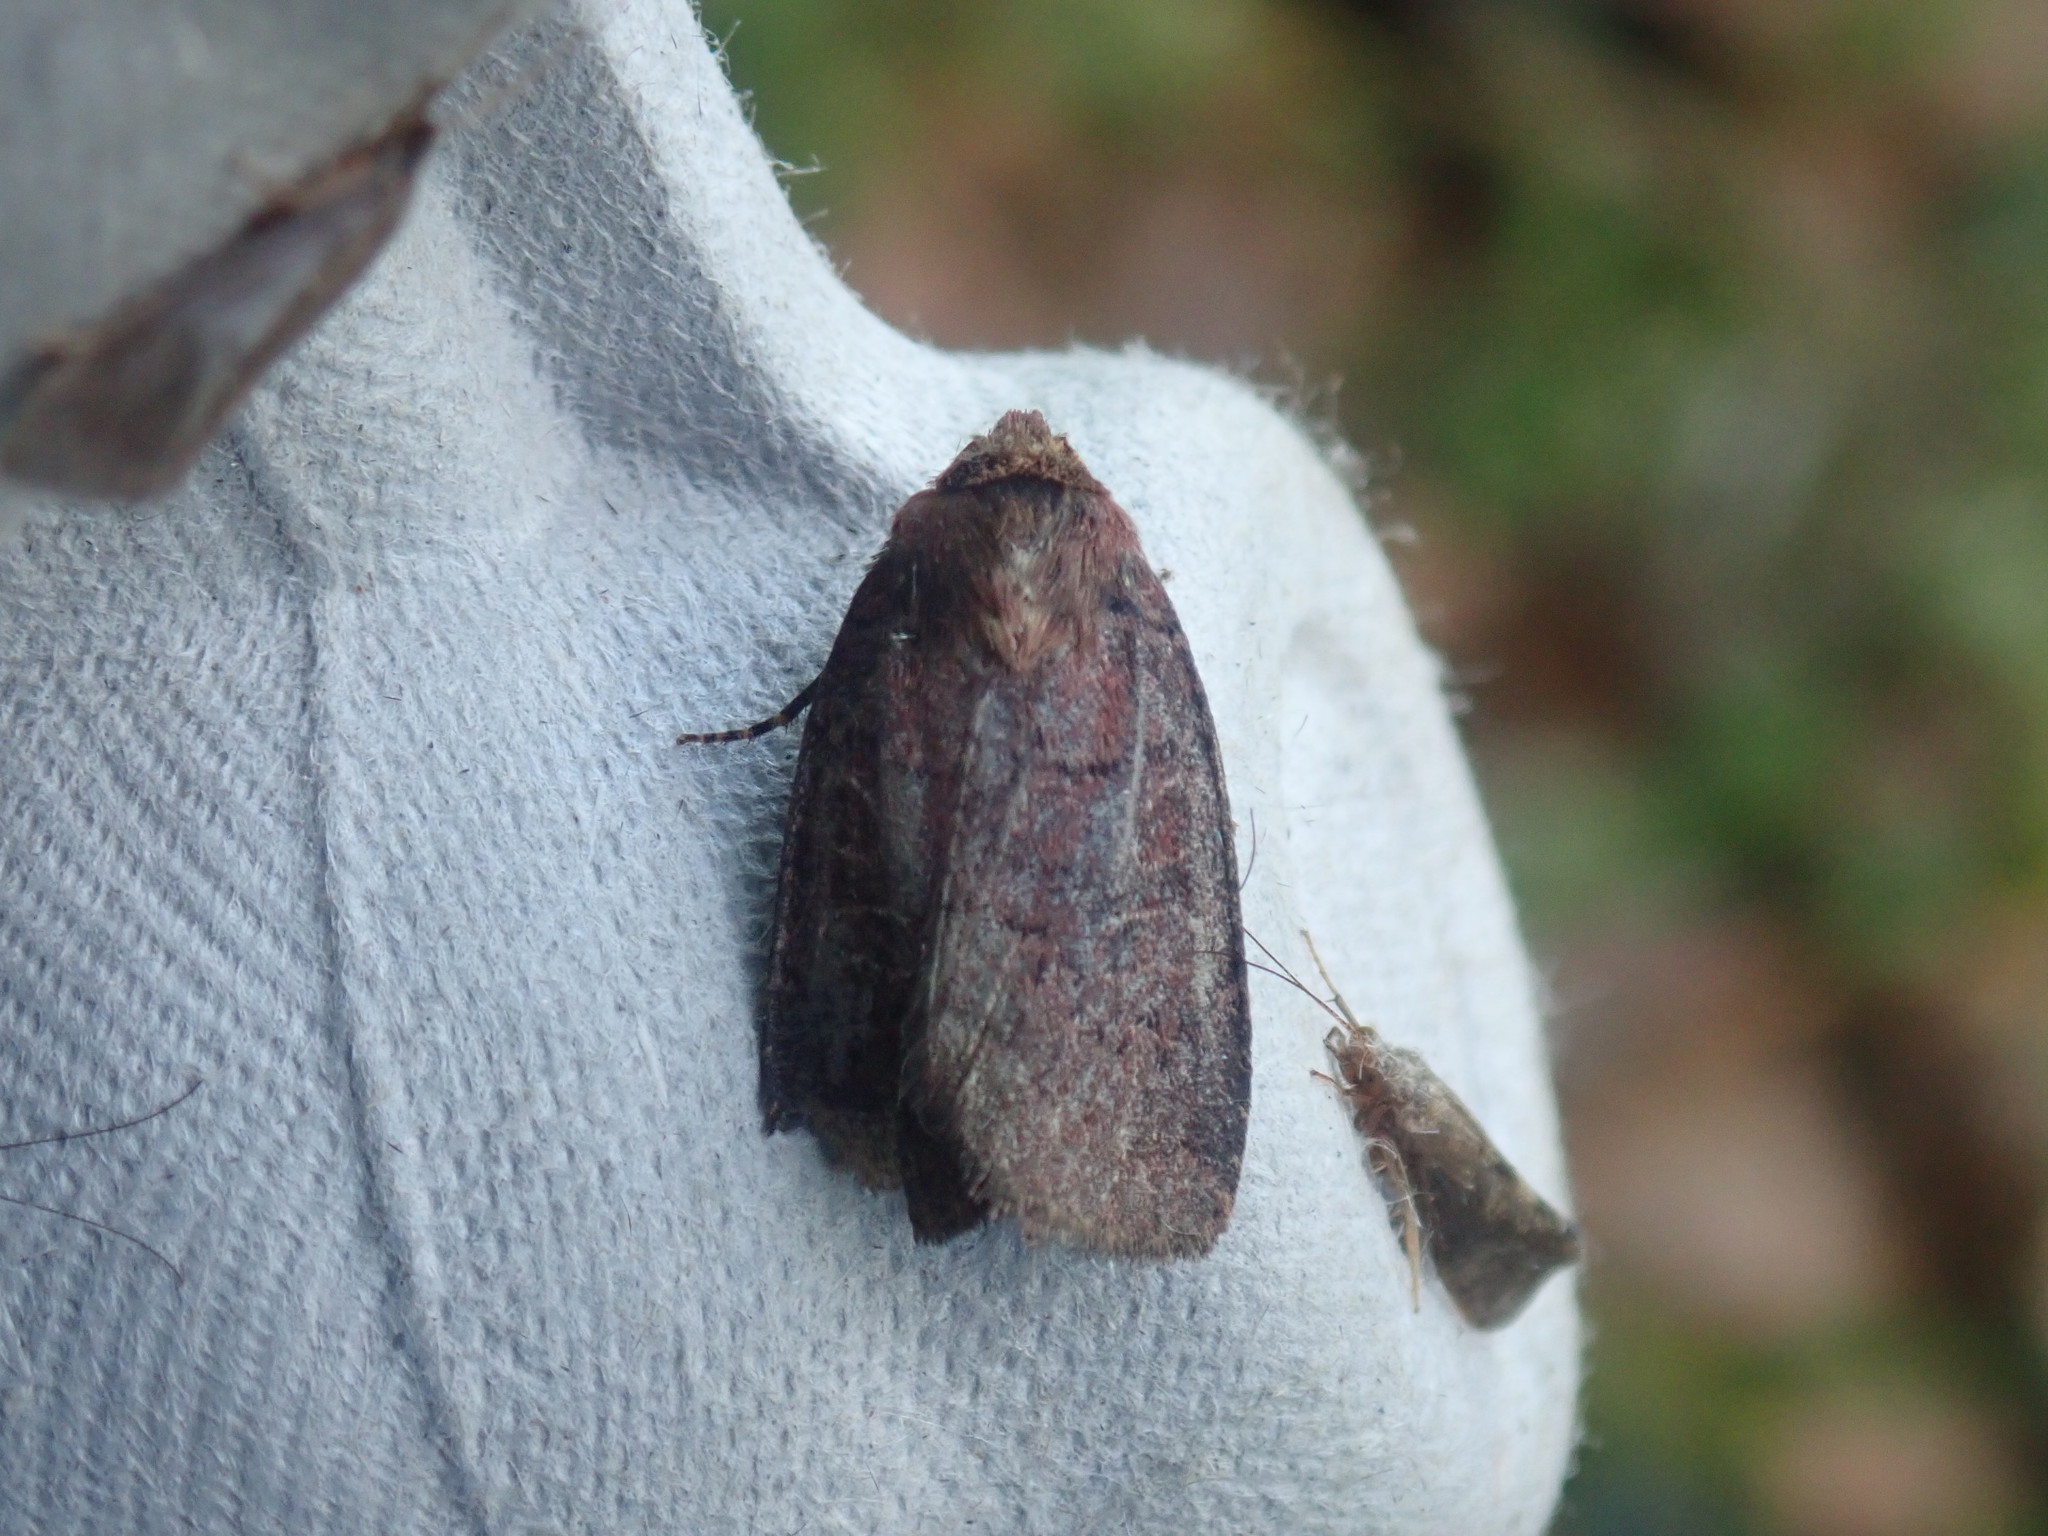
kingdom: Animalia
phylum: Arthropoda
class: Insecta
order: Lepidoptera
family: Noctuidae
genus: Orthodes
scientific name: Orthodes cynica
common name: Cynical quaker
